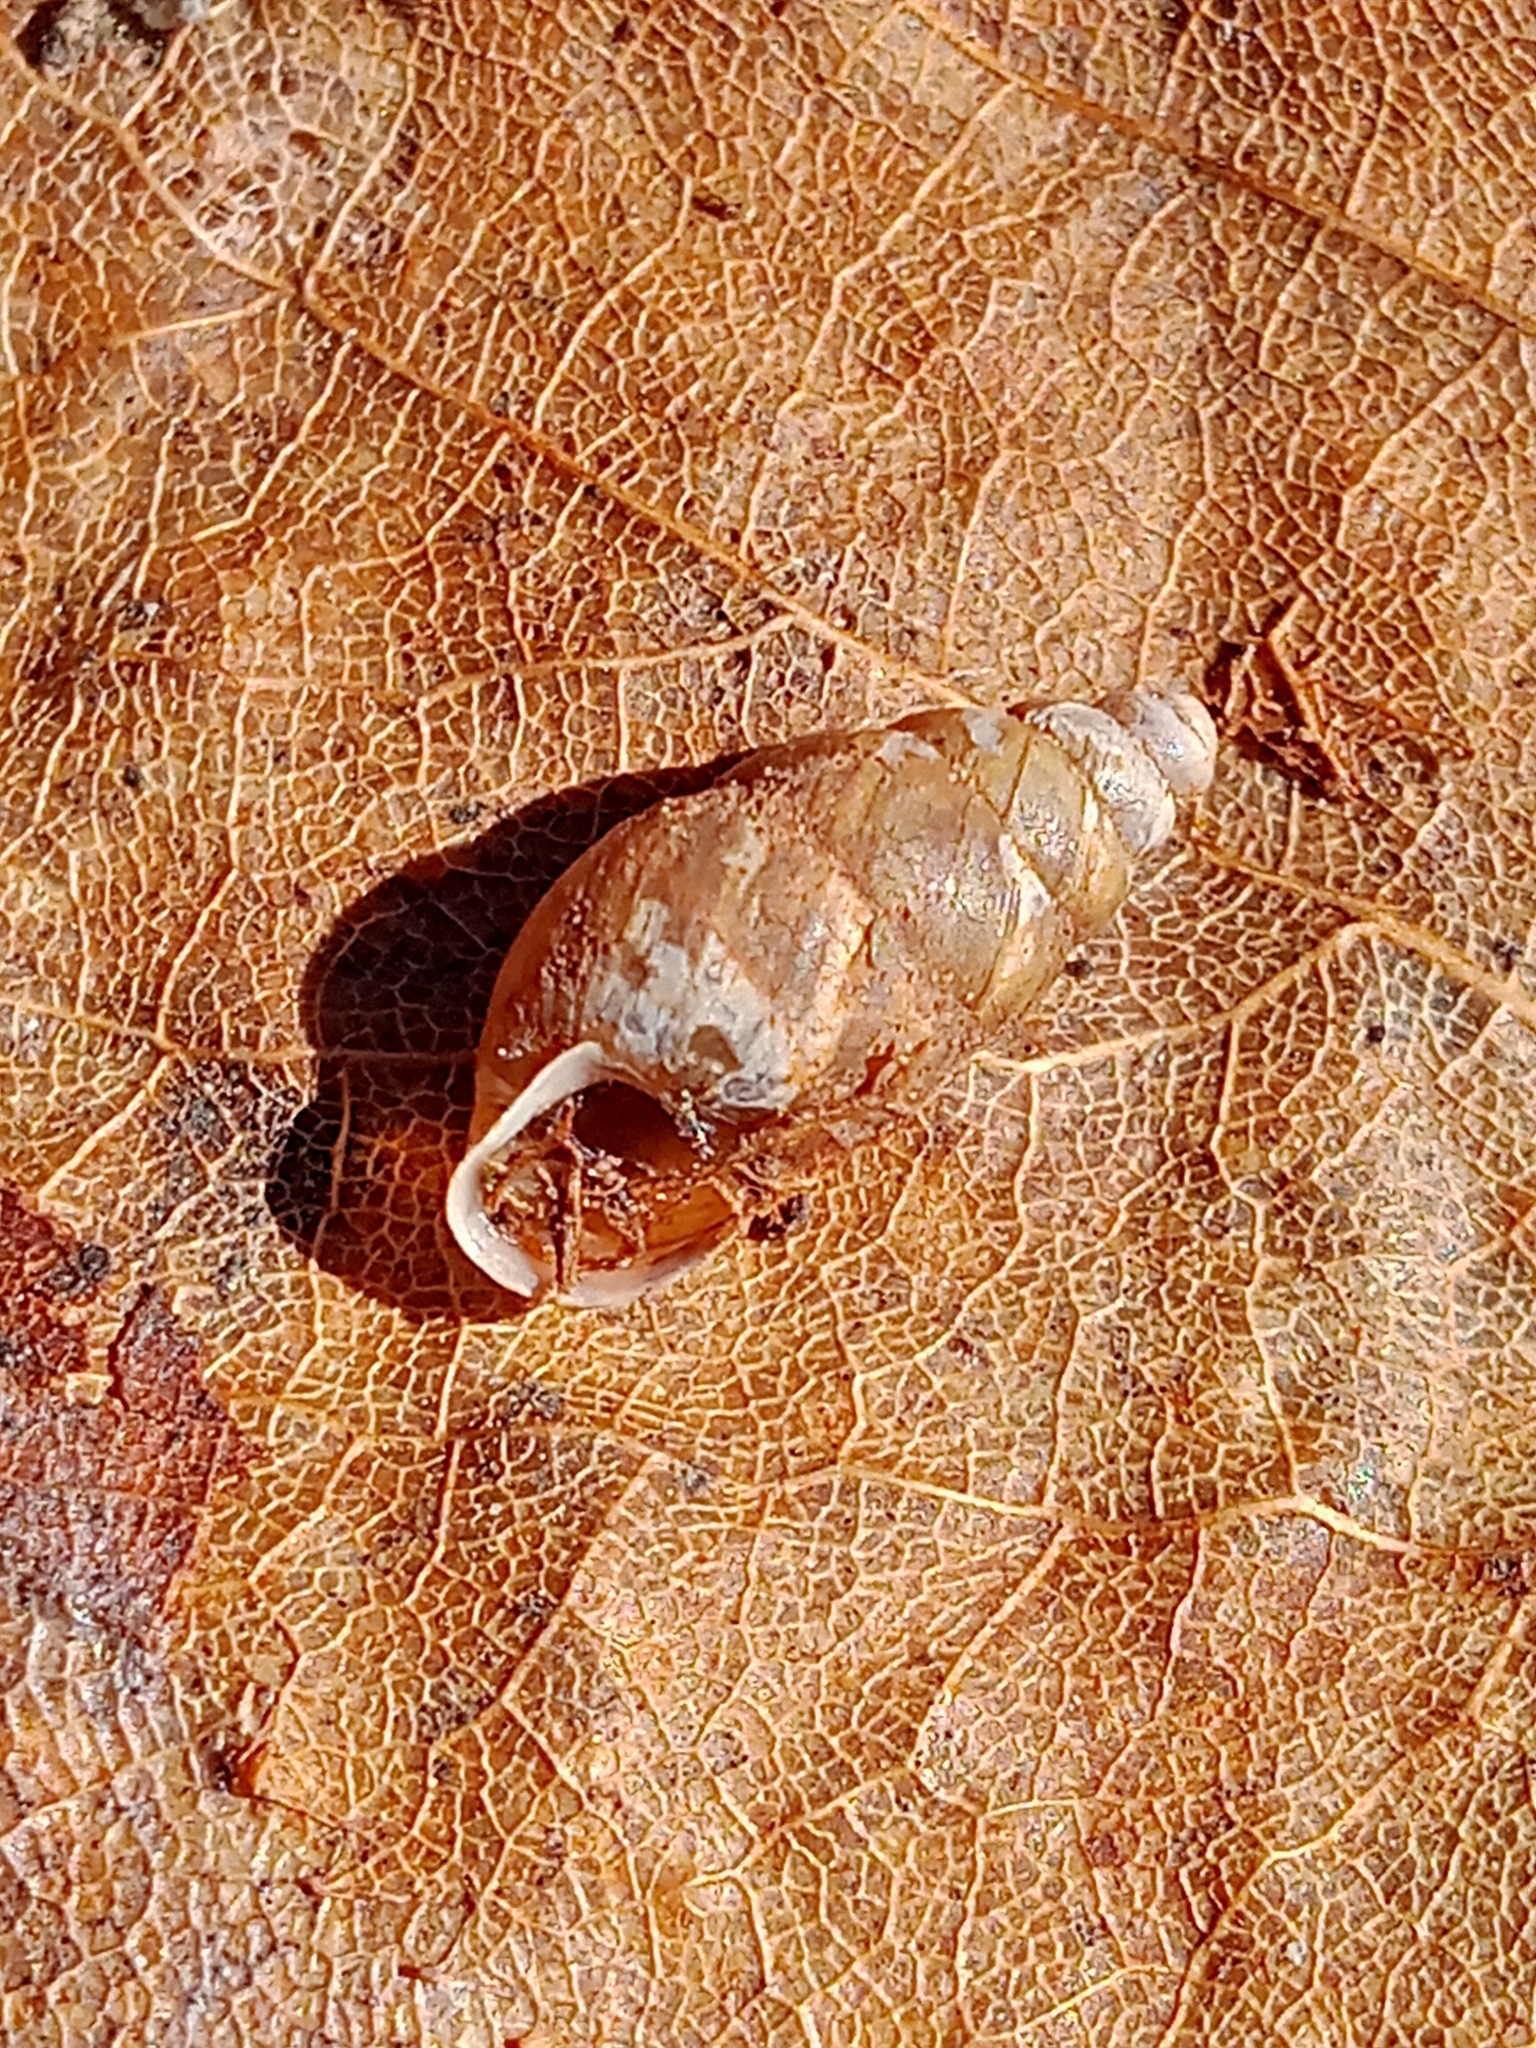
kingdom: Animalia
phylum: Mollusca
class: Gastropoda
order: Stylommatophora
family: Enidae
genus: Merdigera
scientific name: Merdigera obscura
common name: Lesser bulin
